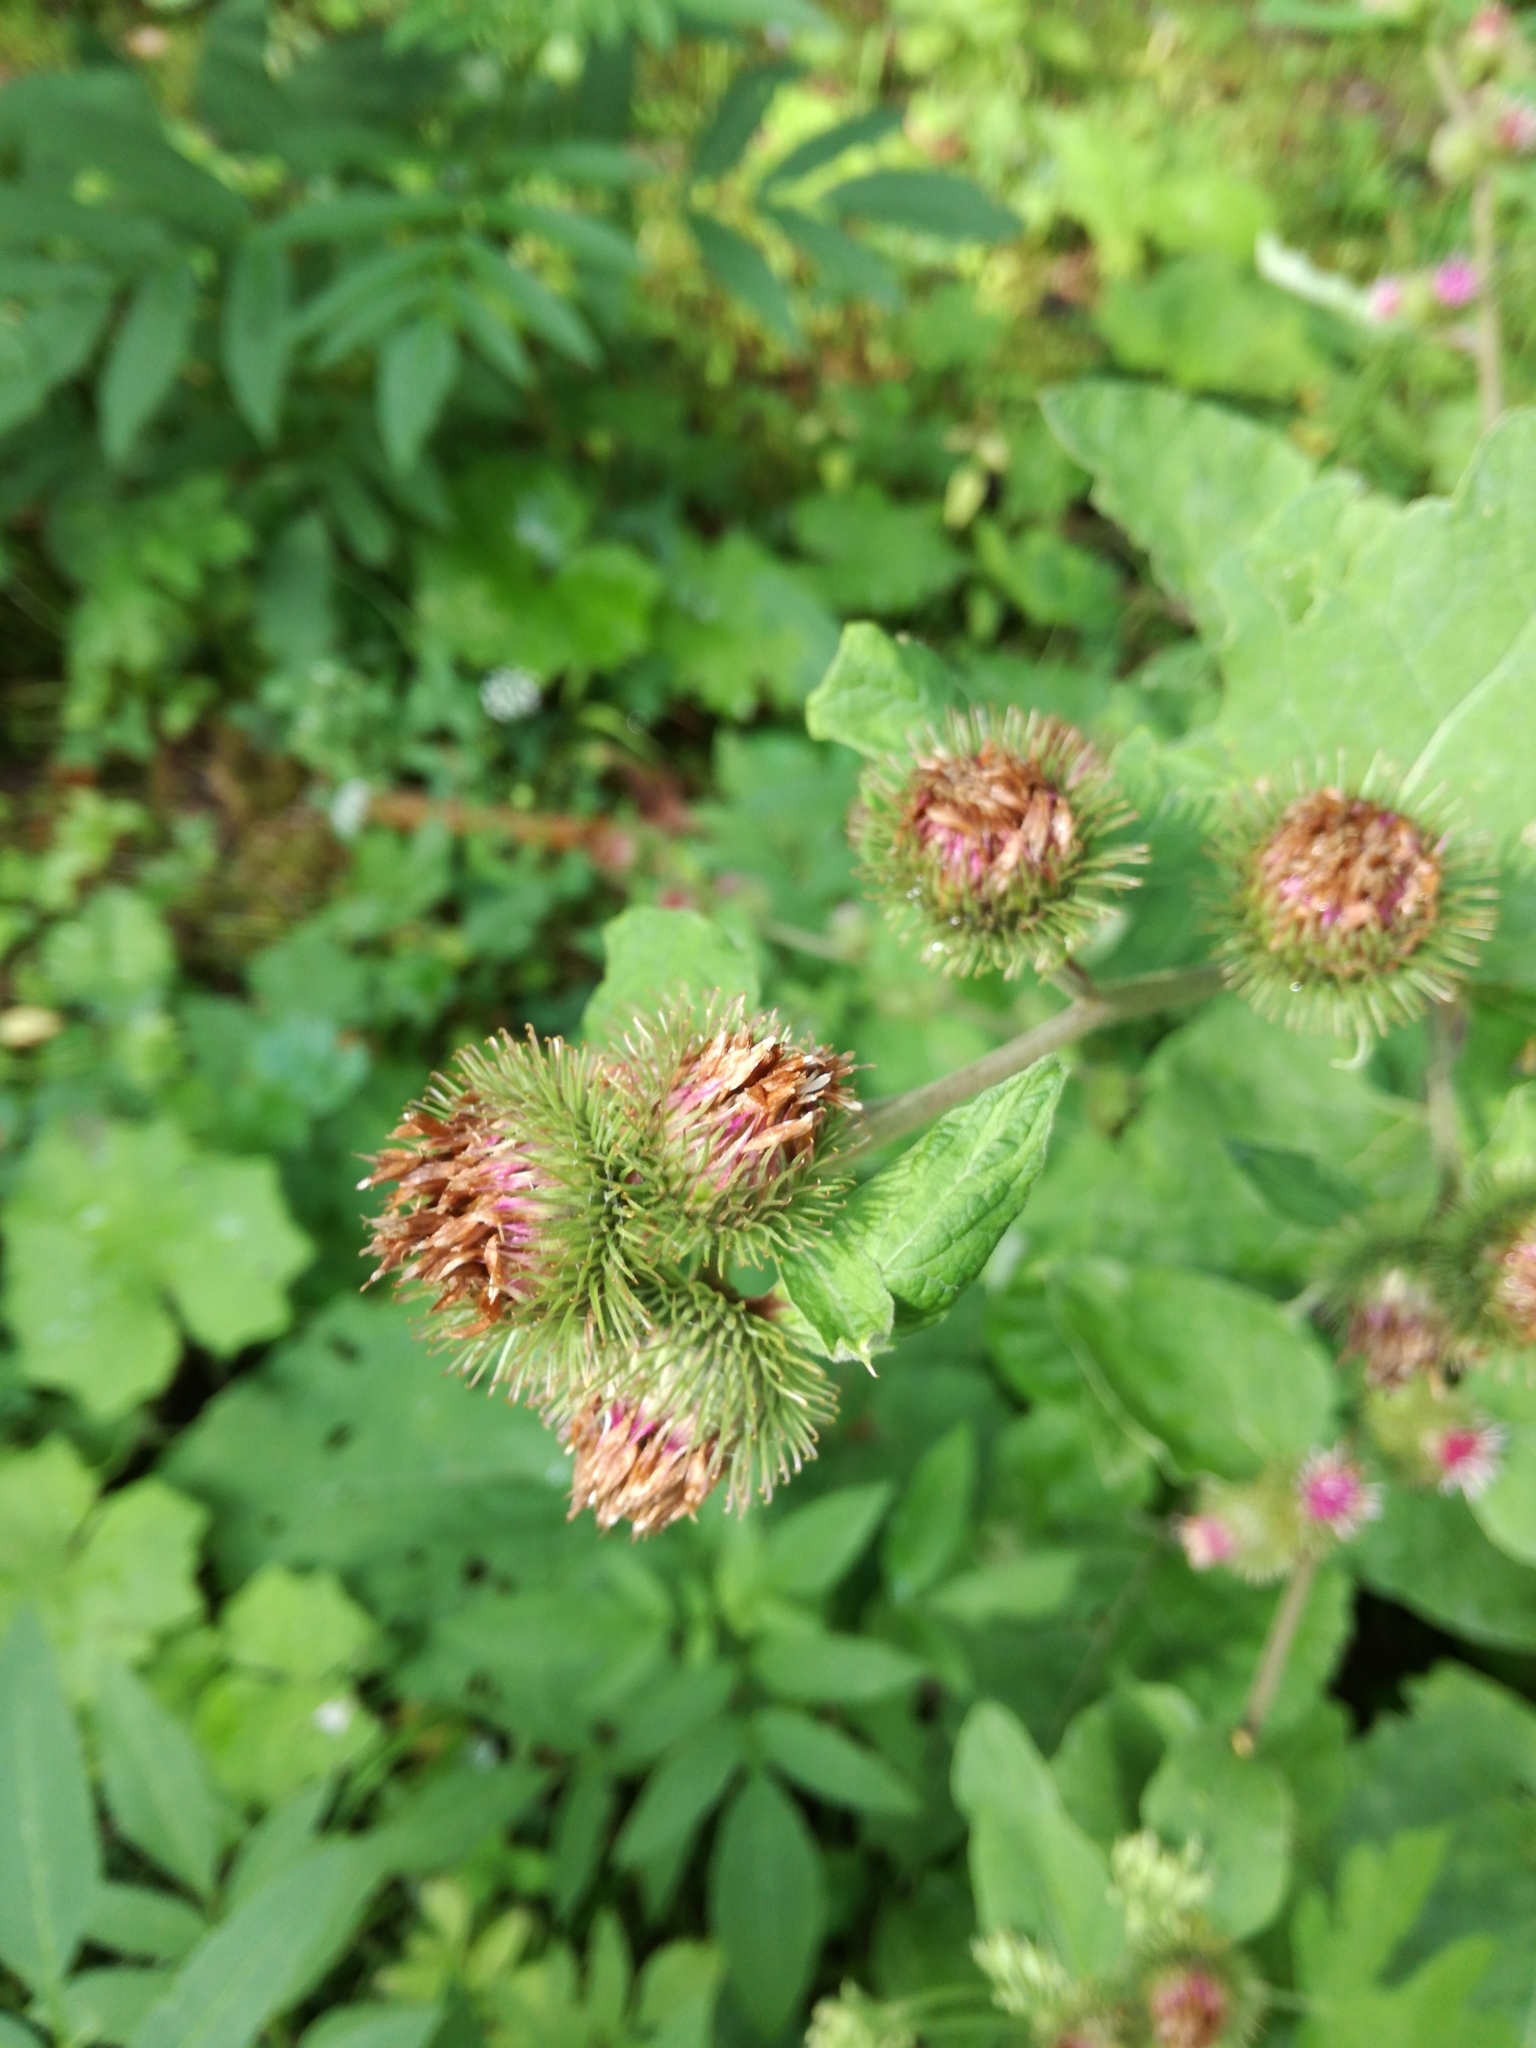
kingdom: Plantae
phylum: Tracheophyta
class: Magnoliopsida
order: Asterales
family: Asteraceae
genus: Arctium
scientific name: Arctium minus
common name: Lesser burdock
